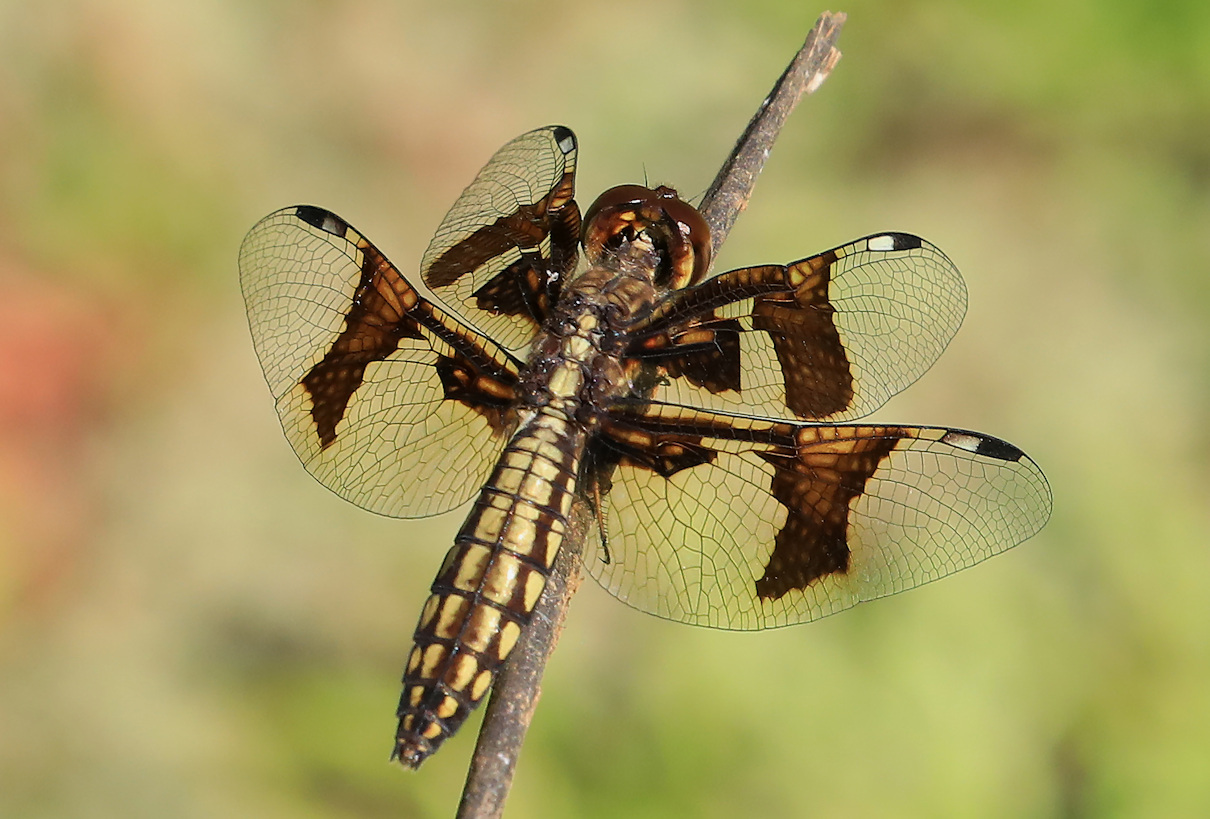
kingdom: Animalia
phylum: Arthropoda
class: Insecta
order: Odonata
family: Libellulidae
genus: Palpopleura
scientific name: Palpopleura lucia
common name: Lucia widow
